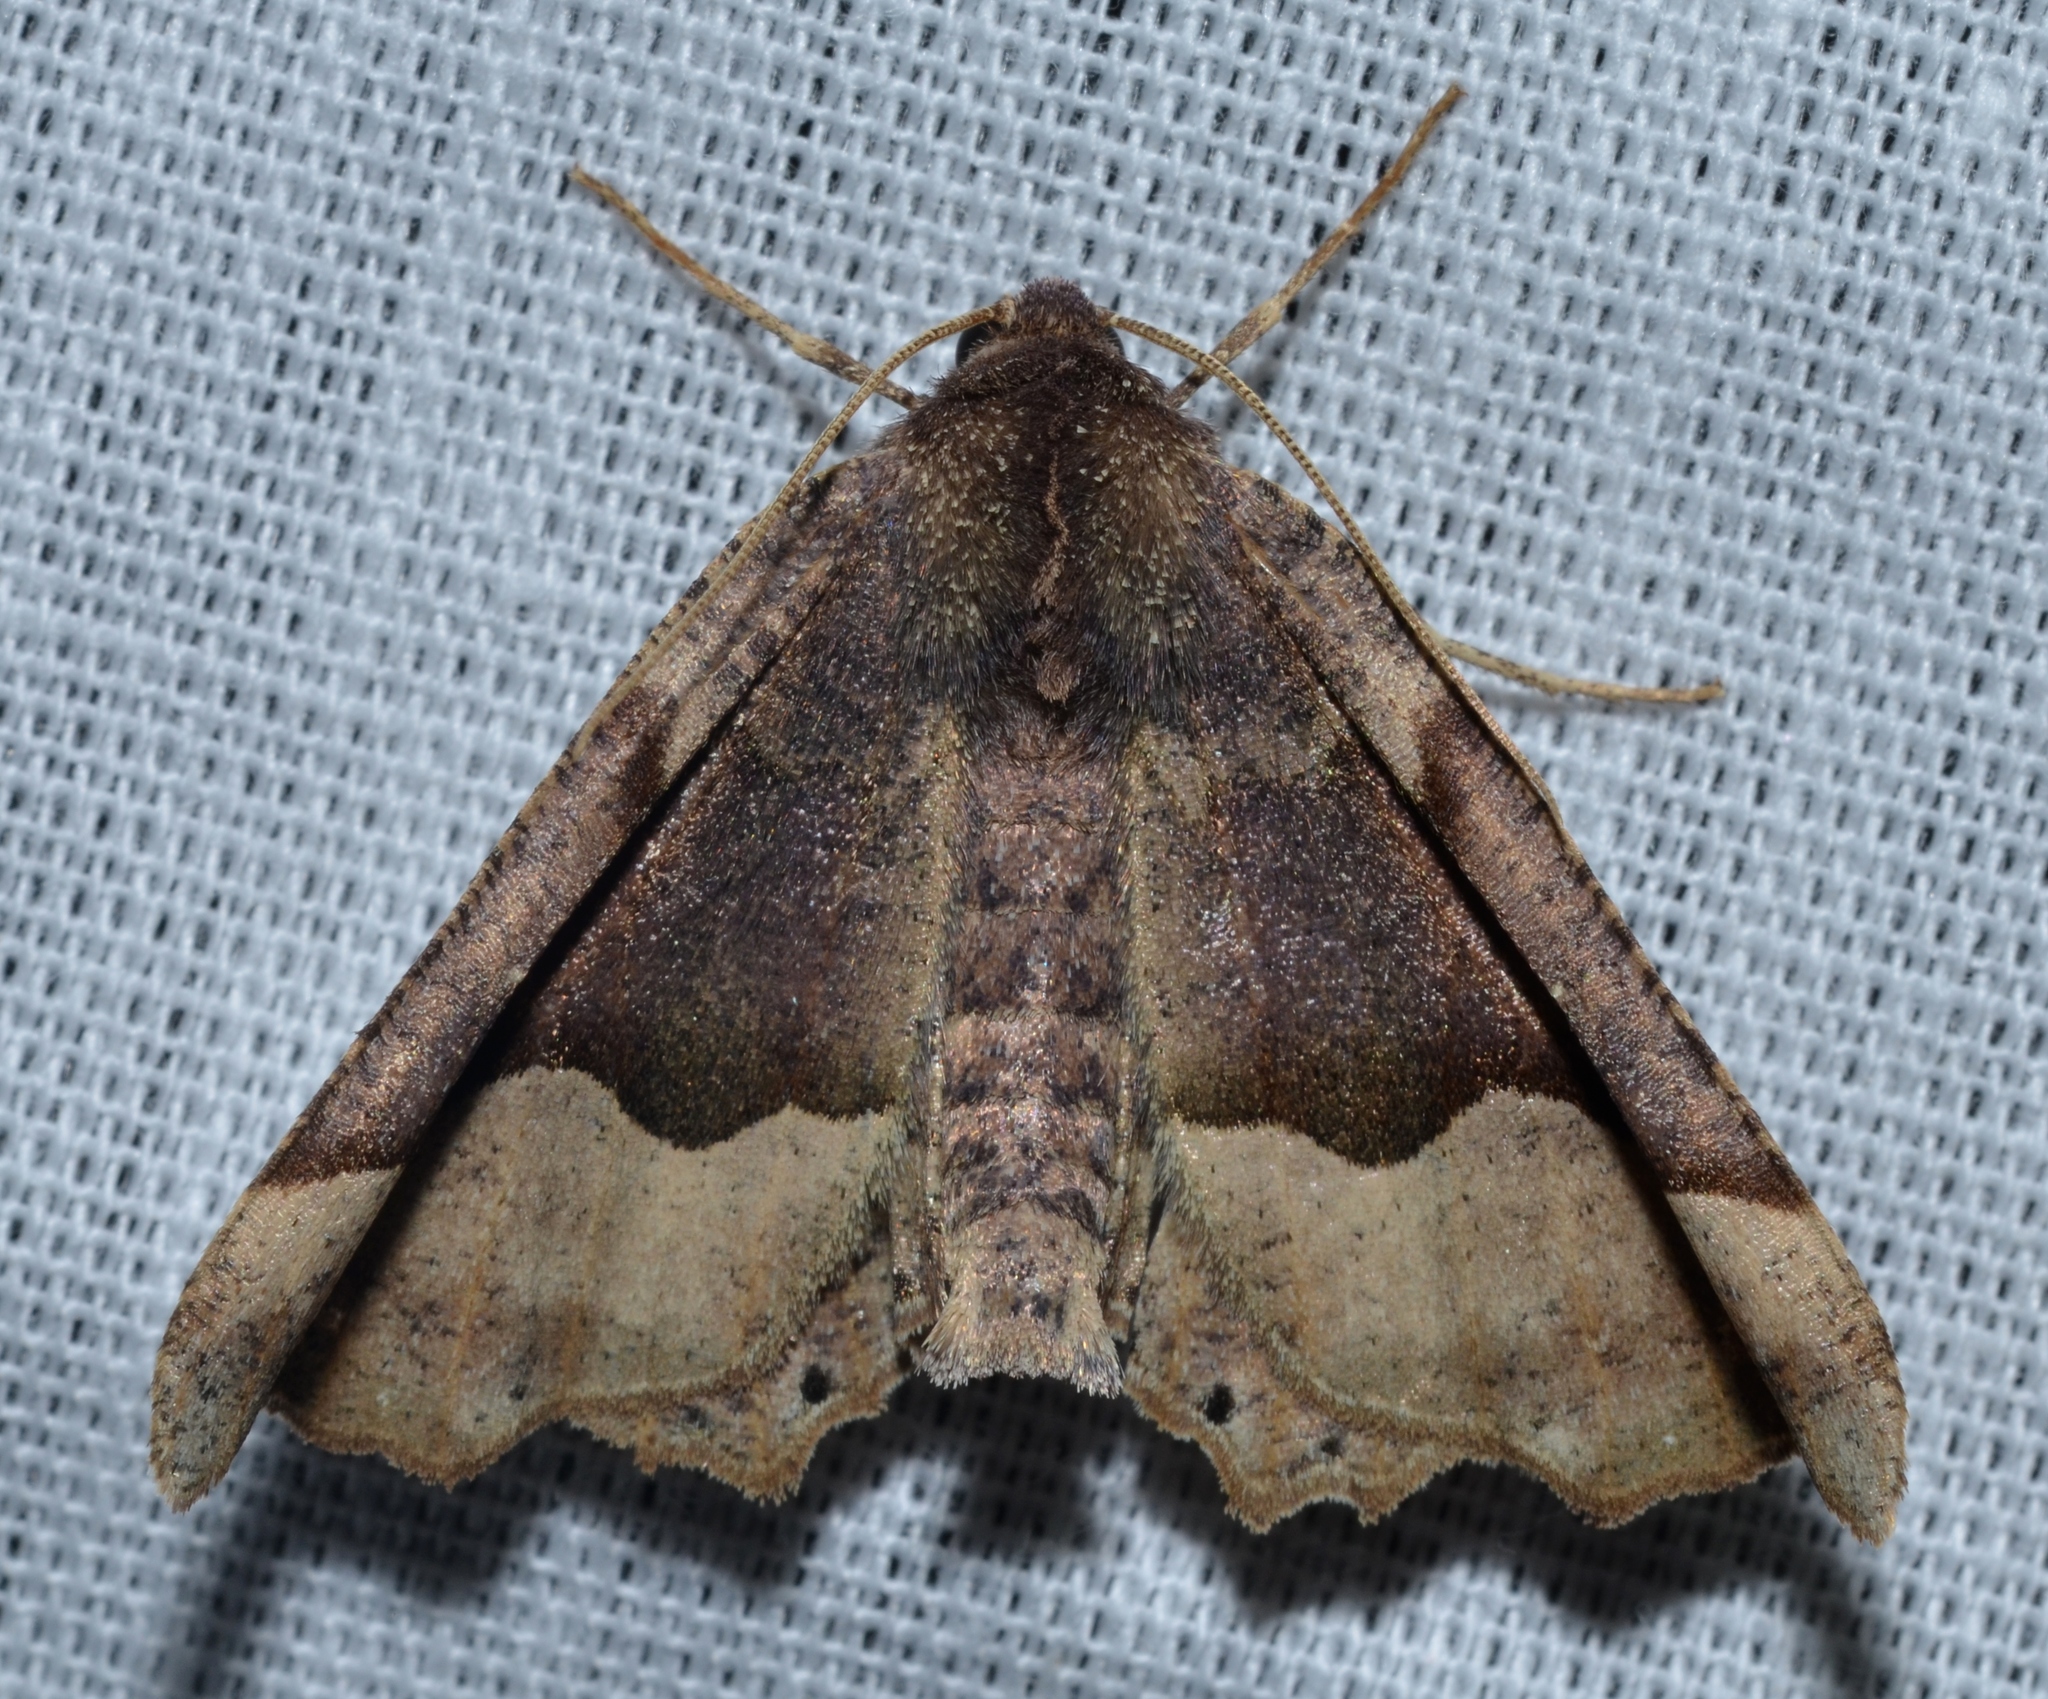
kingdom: Animalia
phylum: Arthropoda
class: Insecta
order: Lepidoptera
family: Geometridae
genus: Pero
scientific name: Pero ancetaria
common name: Hübner's pero
